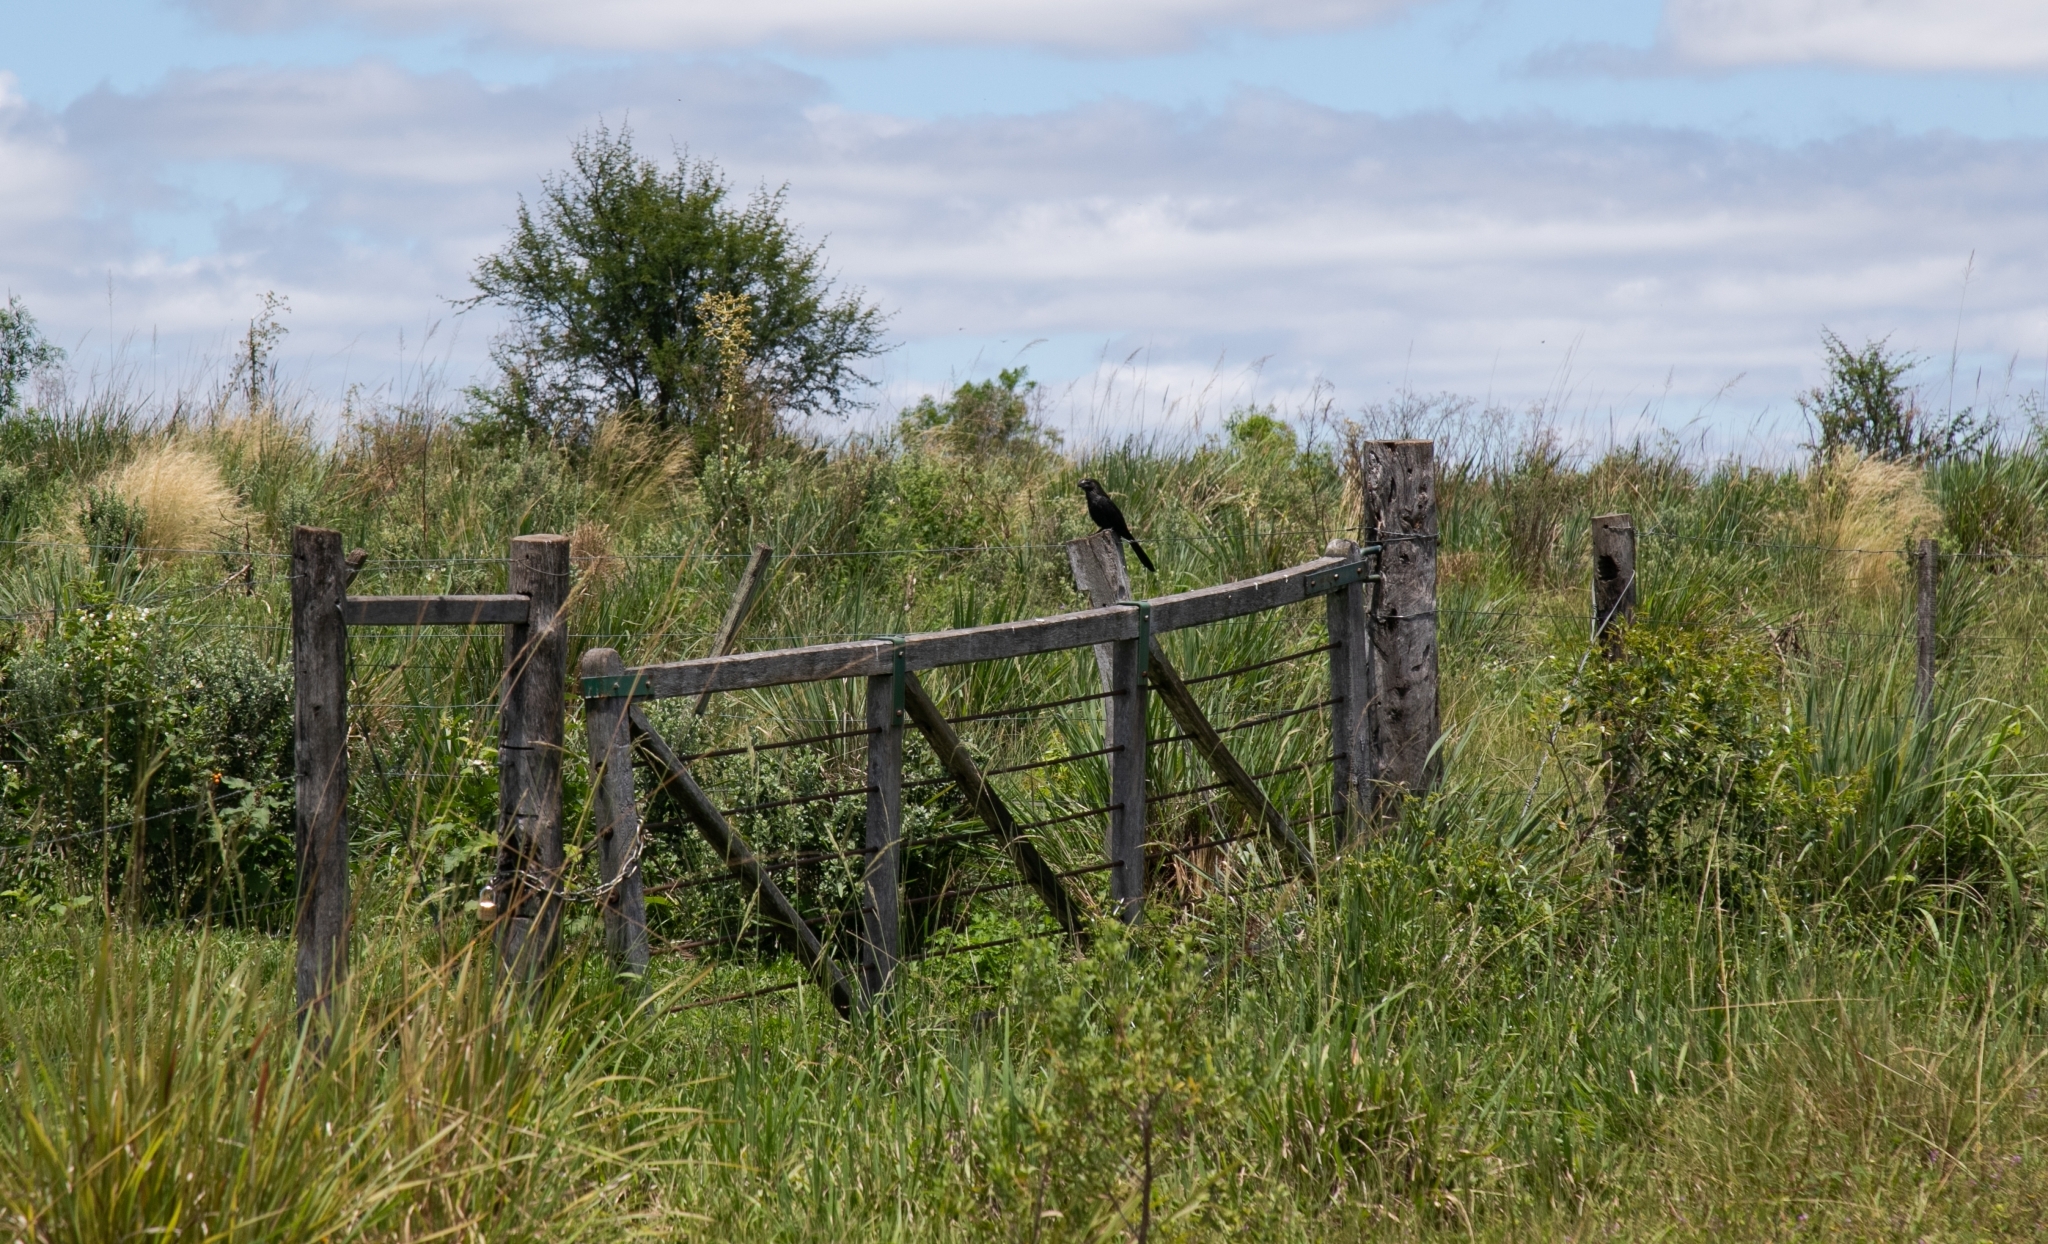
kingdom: Animalia
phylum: Chordata
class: Aves
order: Cuculiformes
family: Cuculidae
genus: Crotophaga
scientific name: Crotophaga ani
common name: Smooth-billed ani
